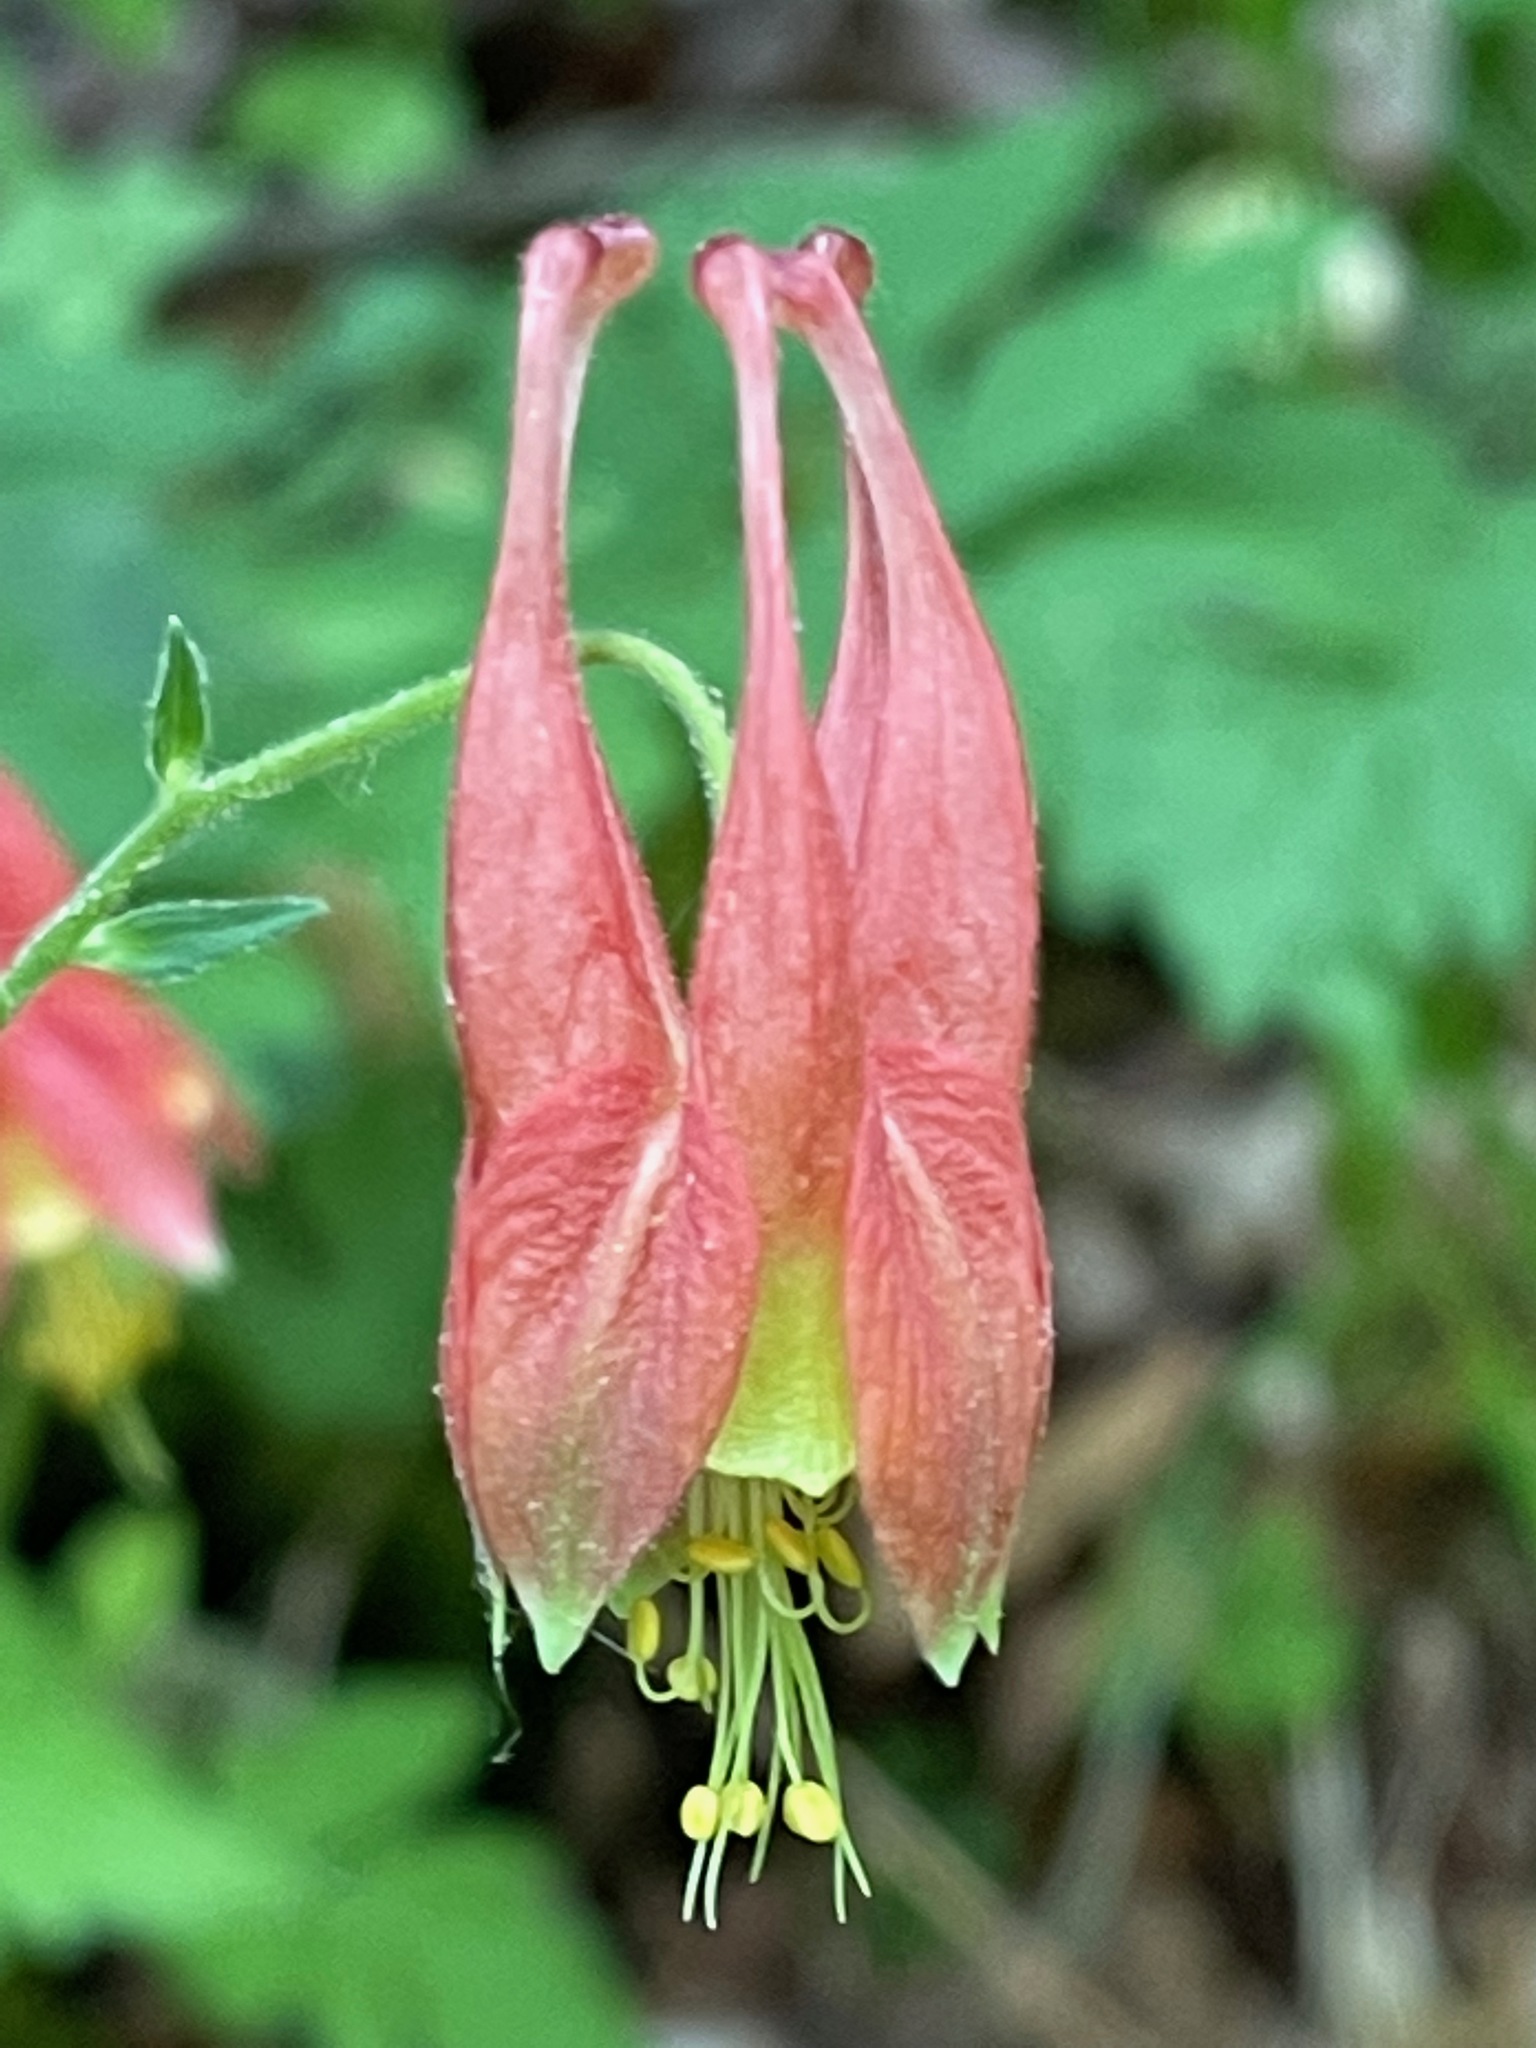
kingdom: Plantae
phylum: Tracheophyta
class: Magnoliopsida
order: Ranunculales
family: Ranunculaceae
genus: Aquilegia
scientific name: Aquilegia canadensis
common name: American columbine
